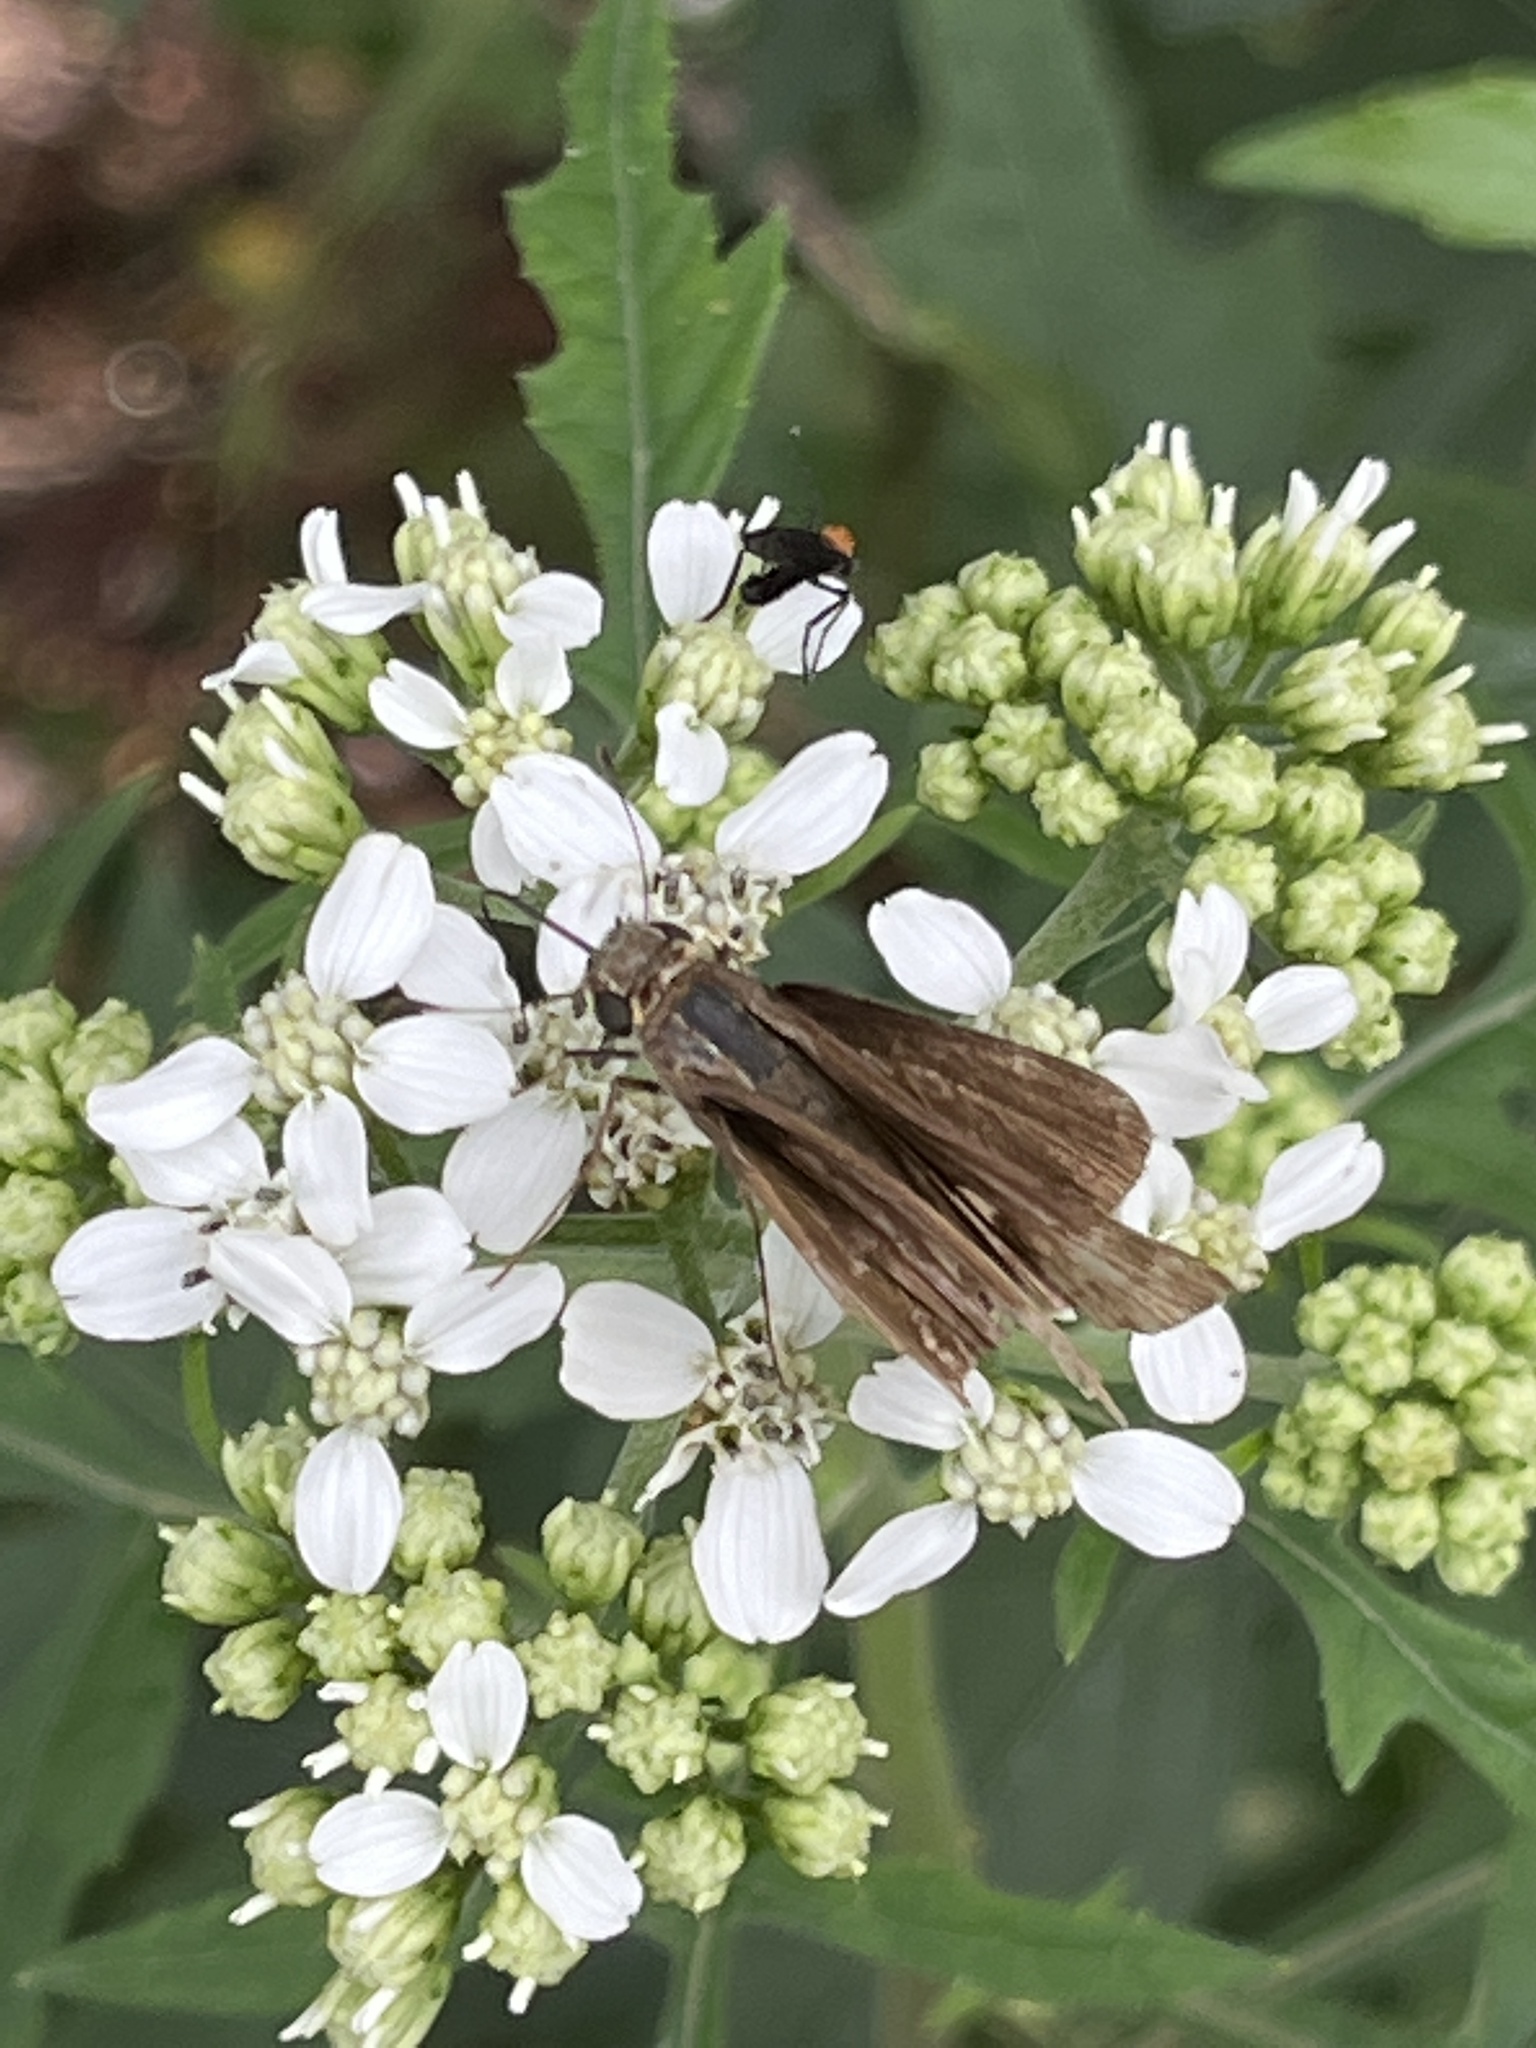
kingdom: Animalia
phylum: Arthropoda
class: Insecta
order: Lepidoptera
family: Hesperiidae
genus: Panoquina
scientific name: Panoquina ocola
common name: Ocola skipper
